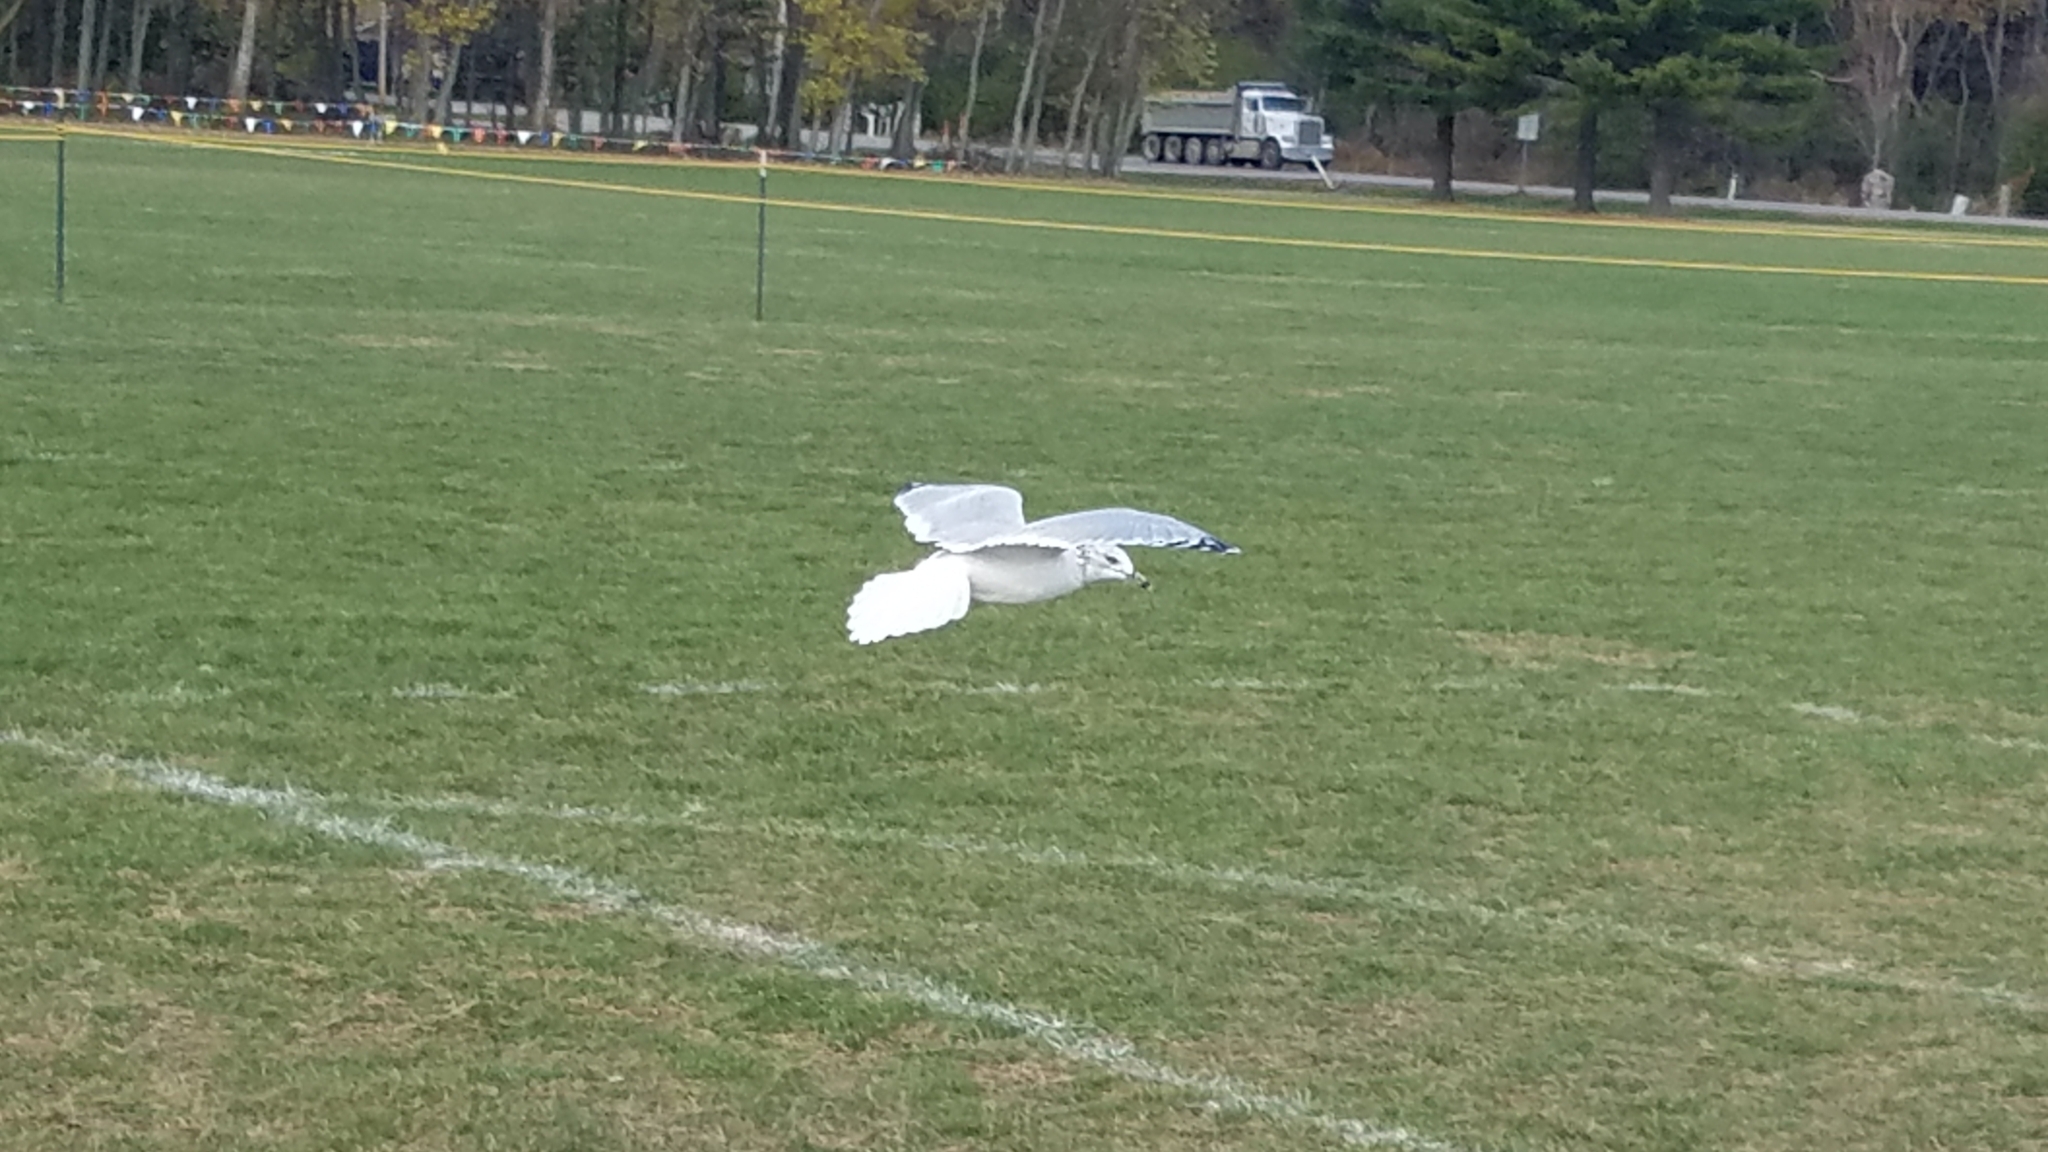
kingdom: Animalia
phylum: Chordata
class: Aves
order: Charadriiformes
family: Laridae
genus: Larus
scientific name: Larus delawarensis
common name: Ring-billed gull
